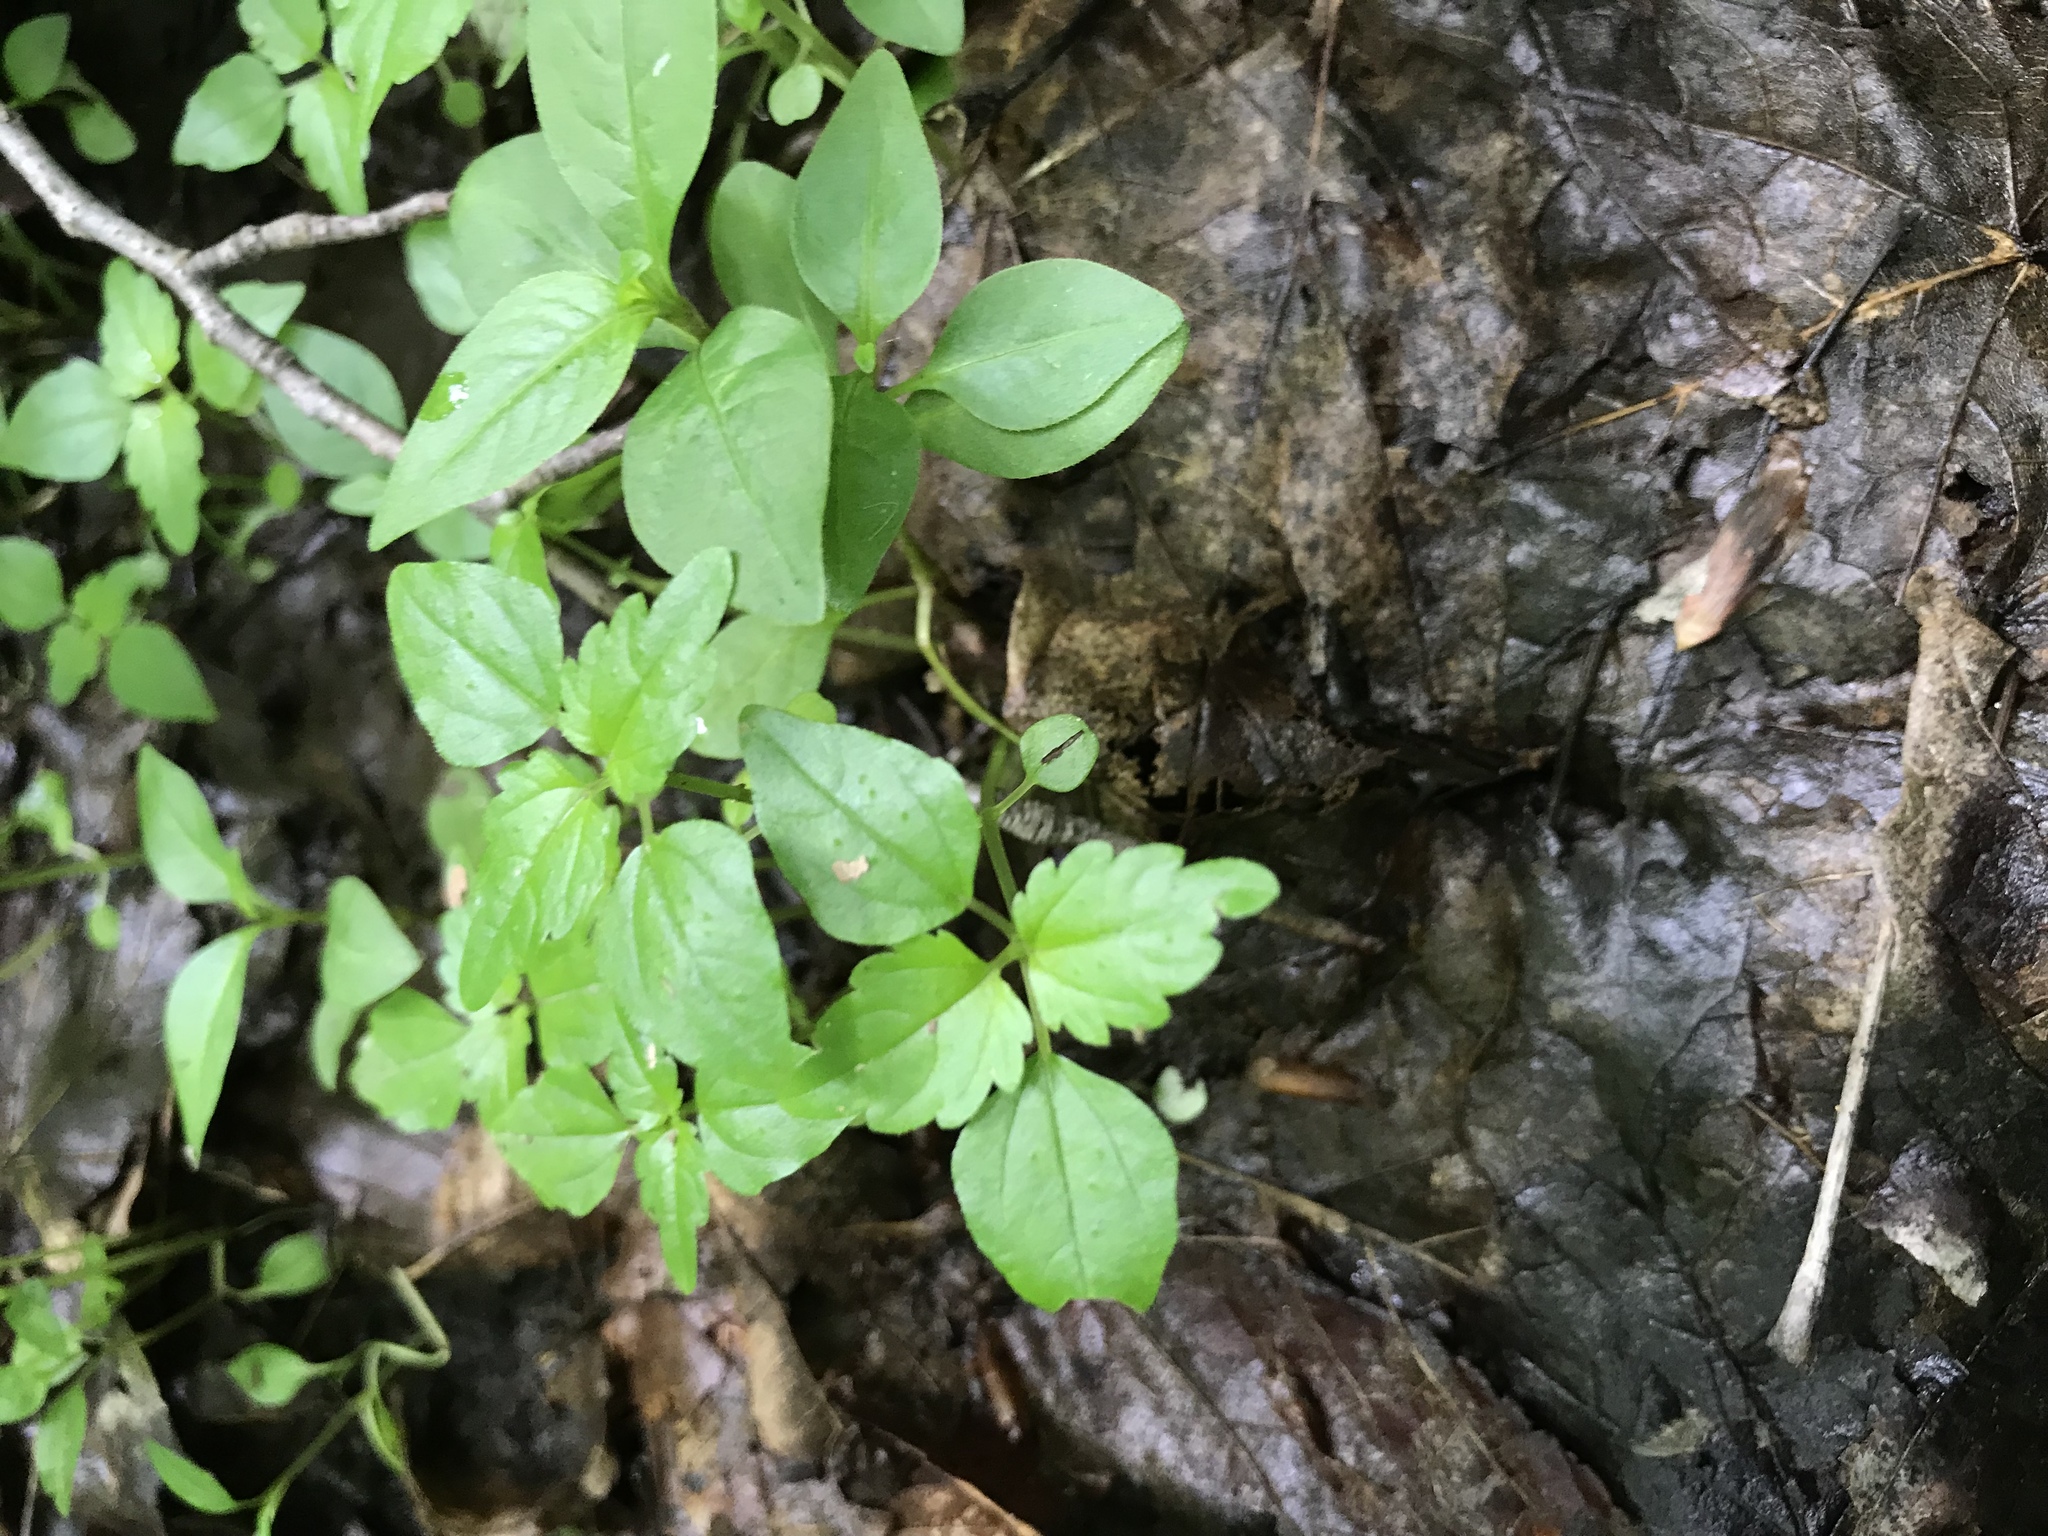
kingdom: Plantae
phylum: Tracheophyta
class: Magnoliopsida
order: Rosales
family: Urticaceae
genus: Pilea
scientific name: Pilea pumila
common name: Clearweed
